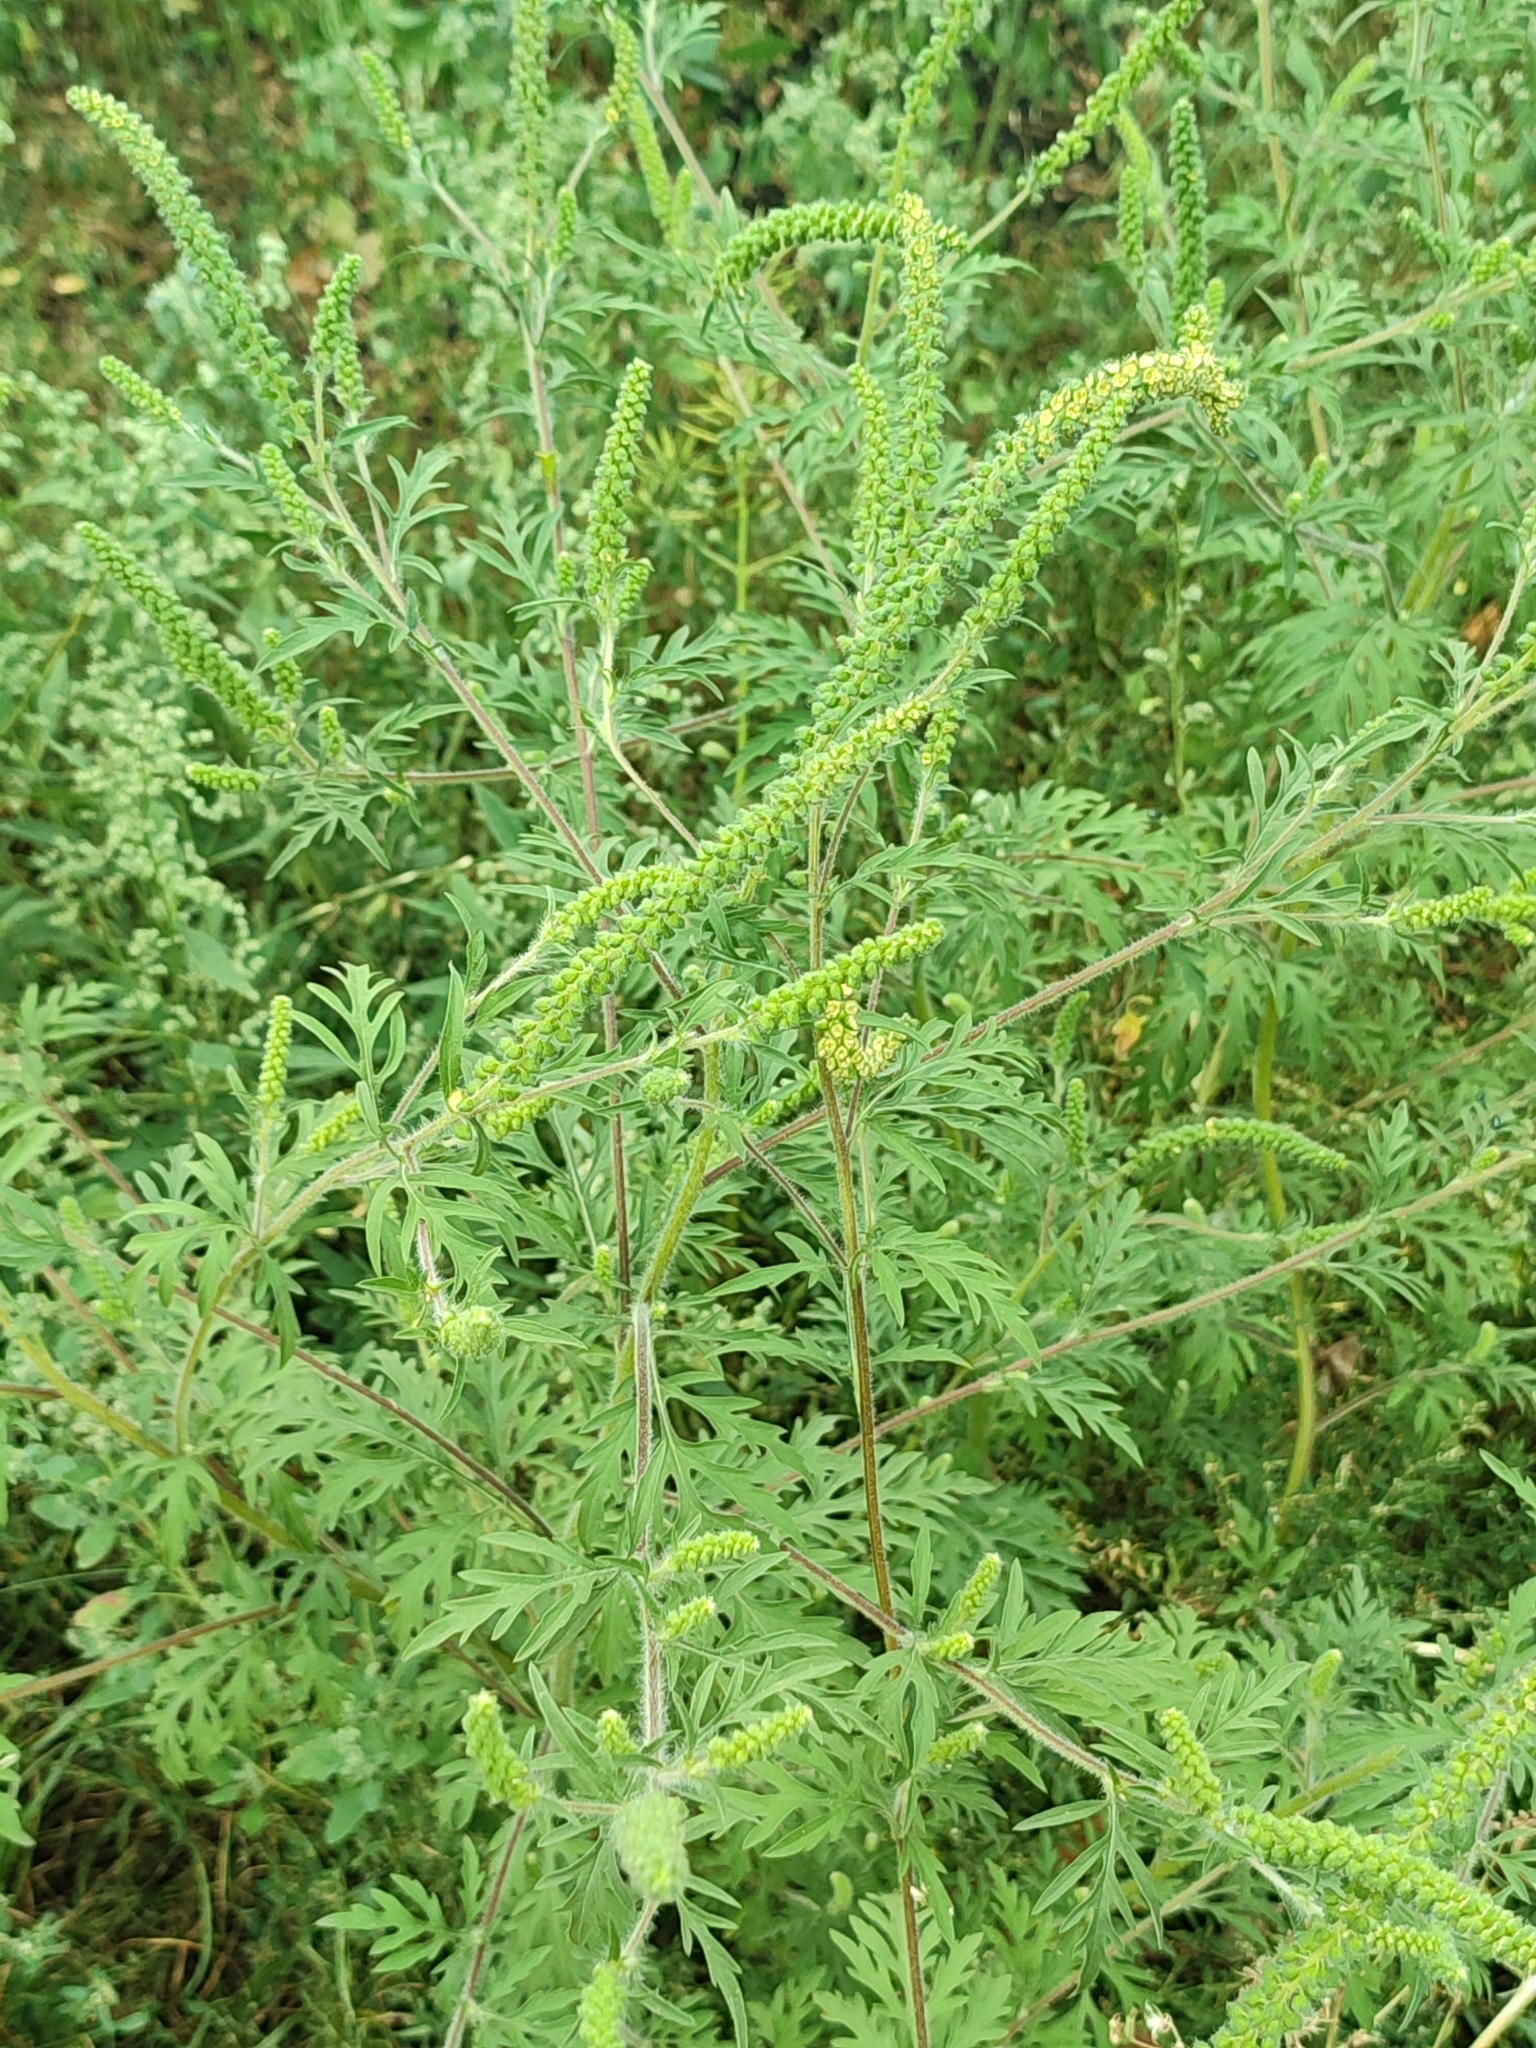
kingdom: Plantae
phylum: Tracheophyta
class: Magnoliopsida
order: Asterales
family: Asteraceae
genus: Ambrosia
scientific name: Ambrosia artemisiifolia
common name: Annual ragweed
